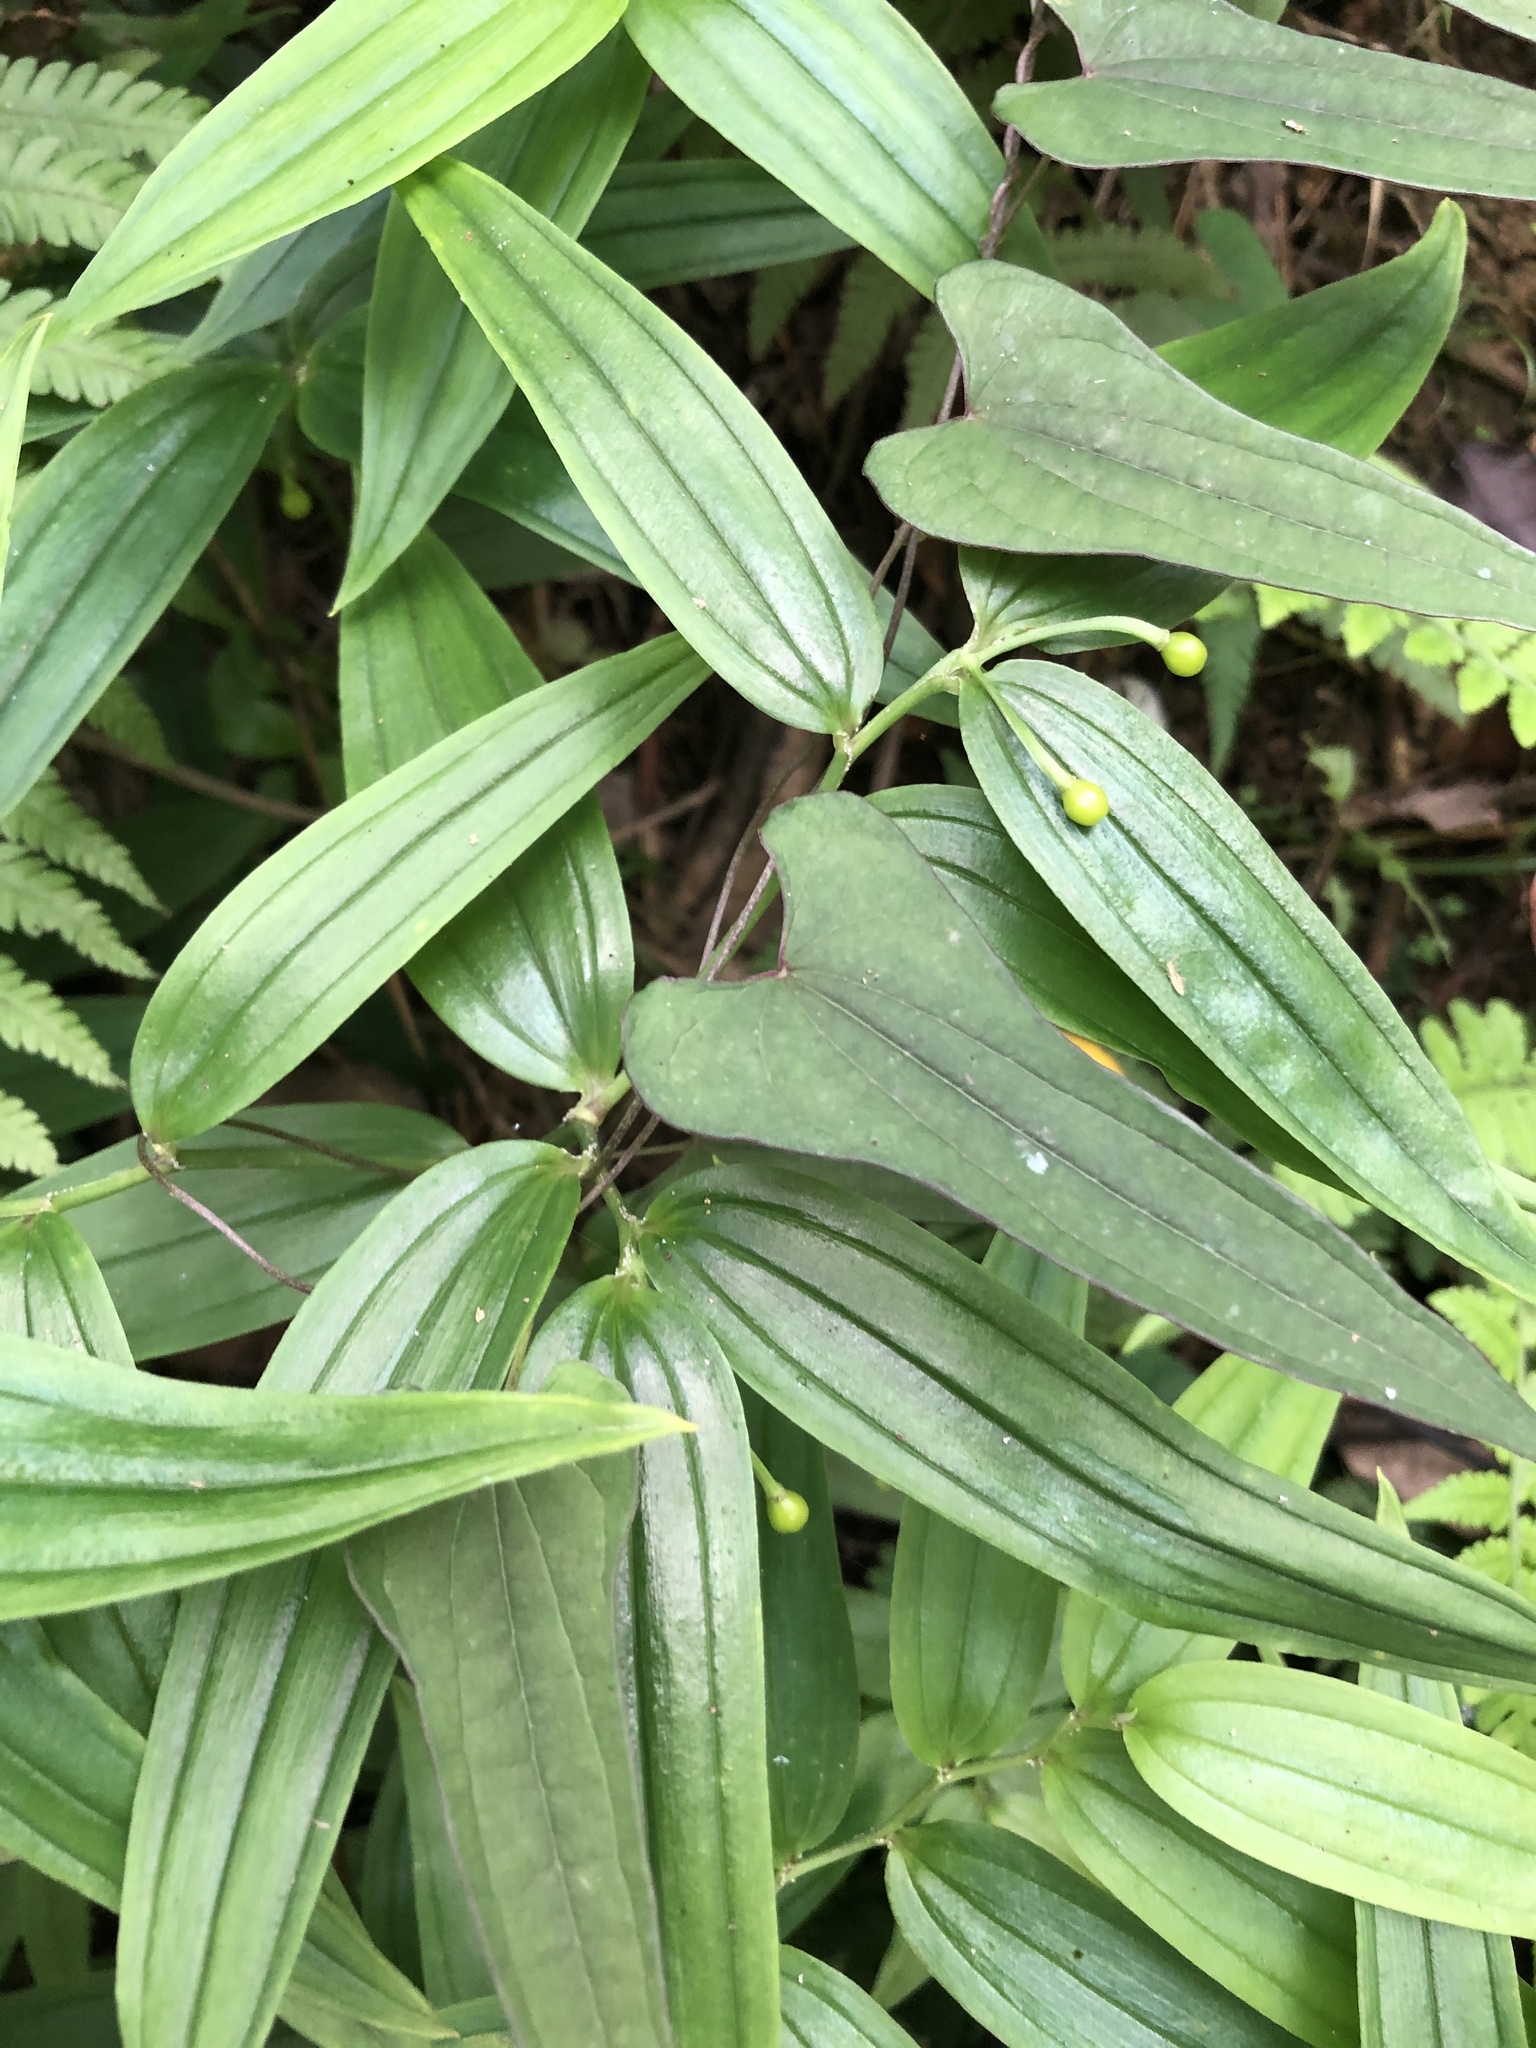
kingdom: Plantae
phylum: Tracheophyta
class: Liliopsida
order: Liliales
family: Colchicaceae
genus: Disporum
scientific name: Disporum shimadae
